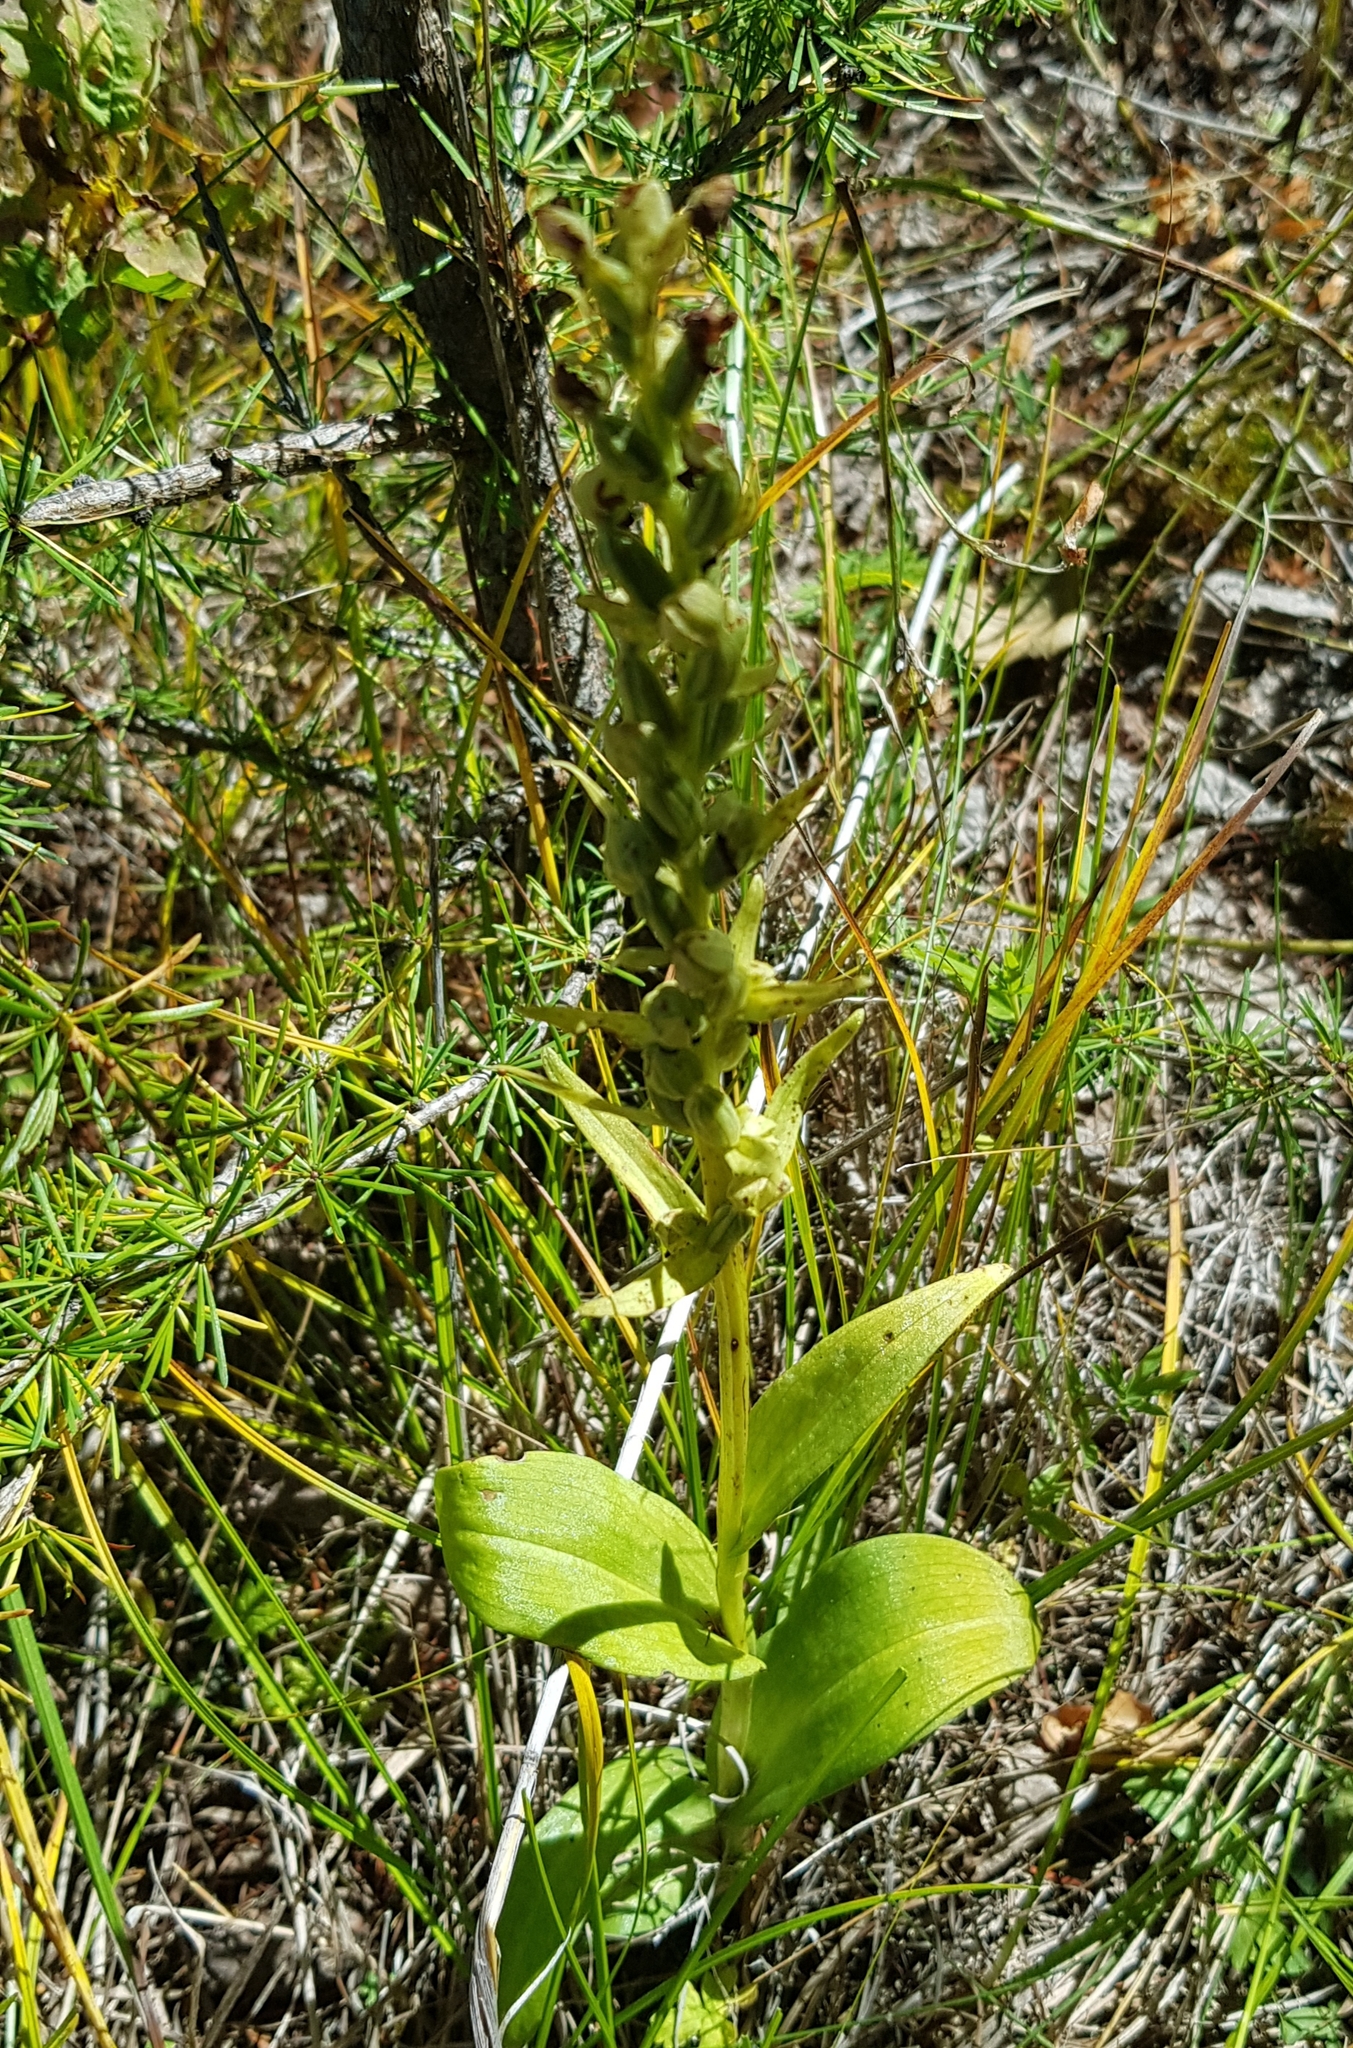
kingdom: Plantae
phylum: Tracheophyta
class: Liliopsida
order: Asparagales
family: Orchidaceae
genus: Dactylorhiza
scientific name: Dactylorhiza viridis
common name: Longbract frog orchid
